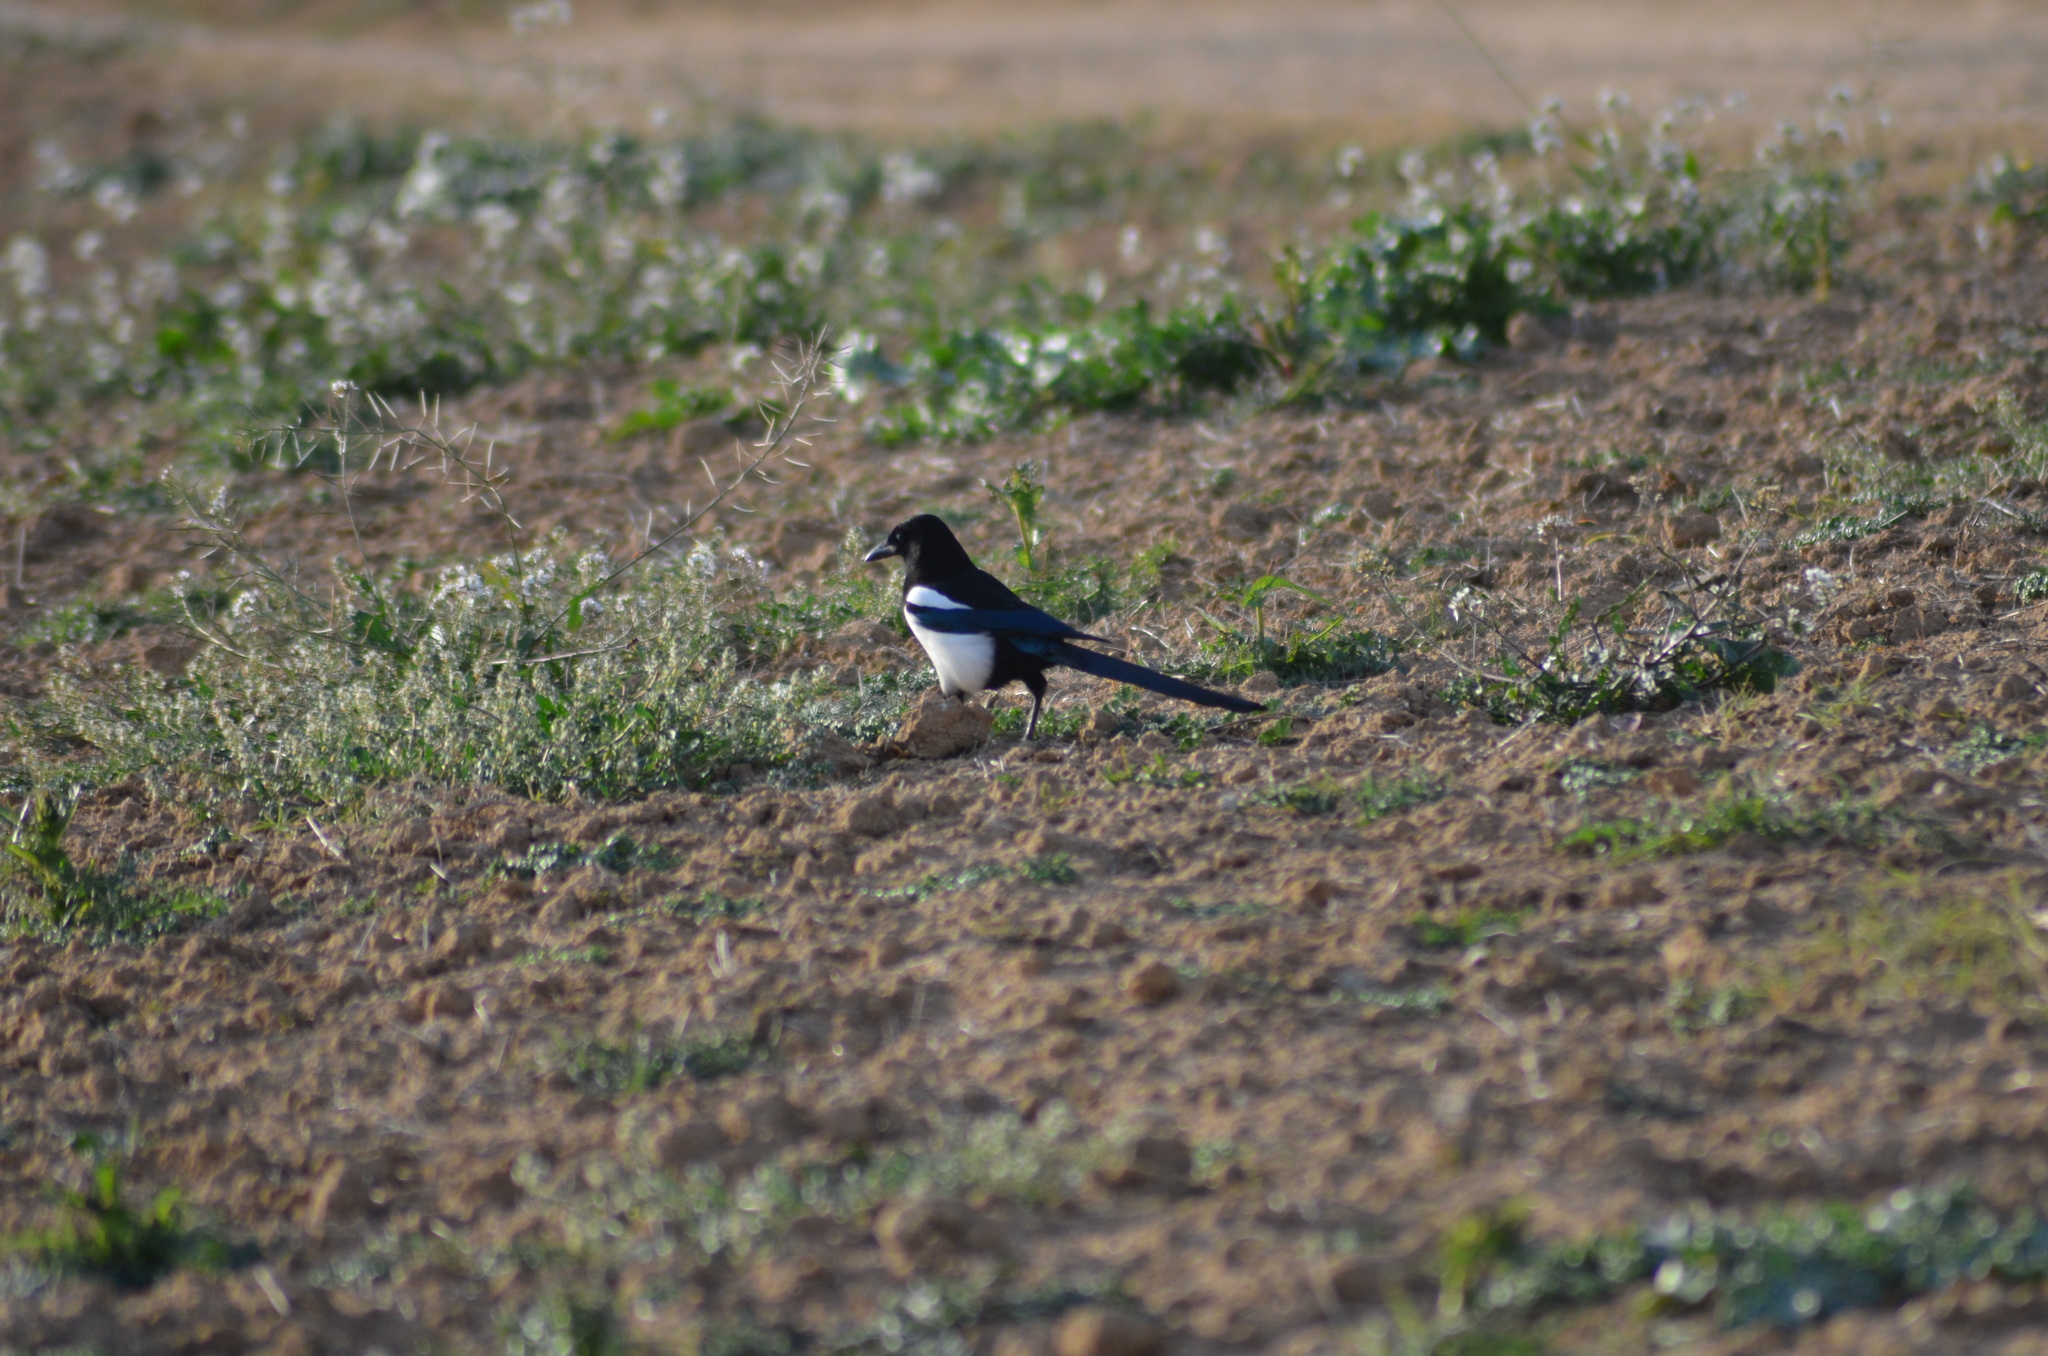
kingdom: Animalia
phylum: Chordata
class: Aves
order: Passeriformes
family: Corvidae
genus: Pica
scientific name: Pica pica
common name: Eurasian magpie
